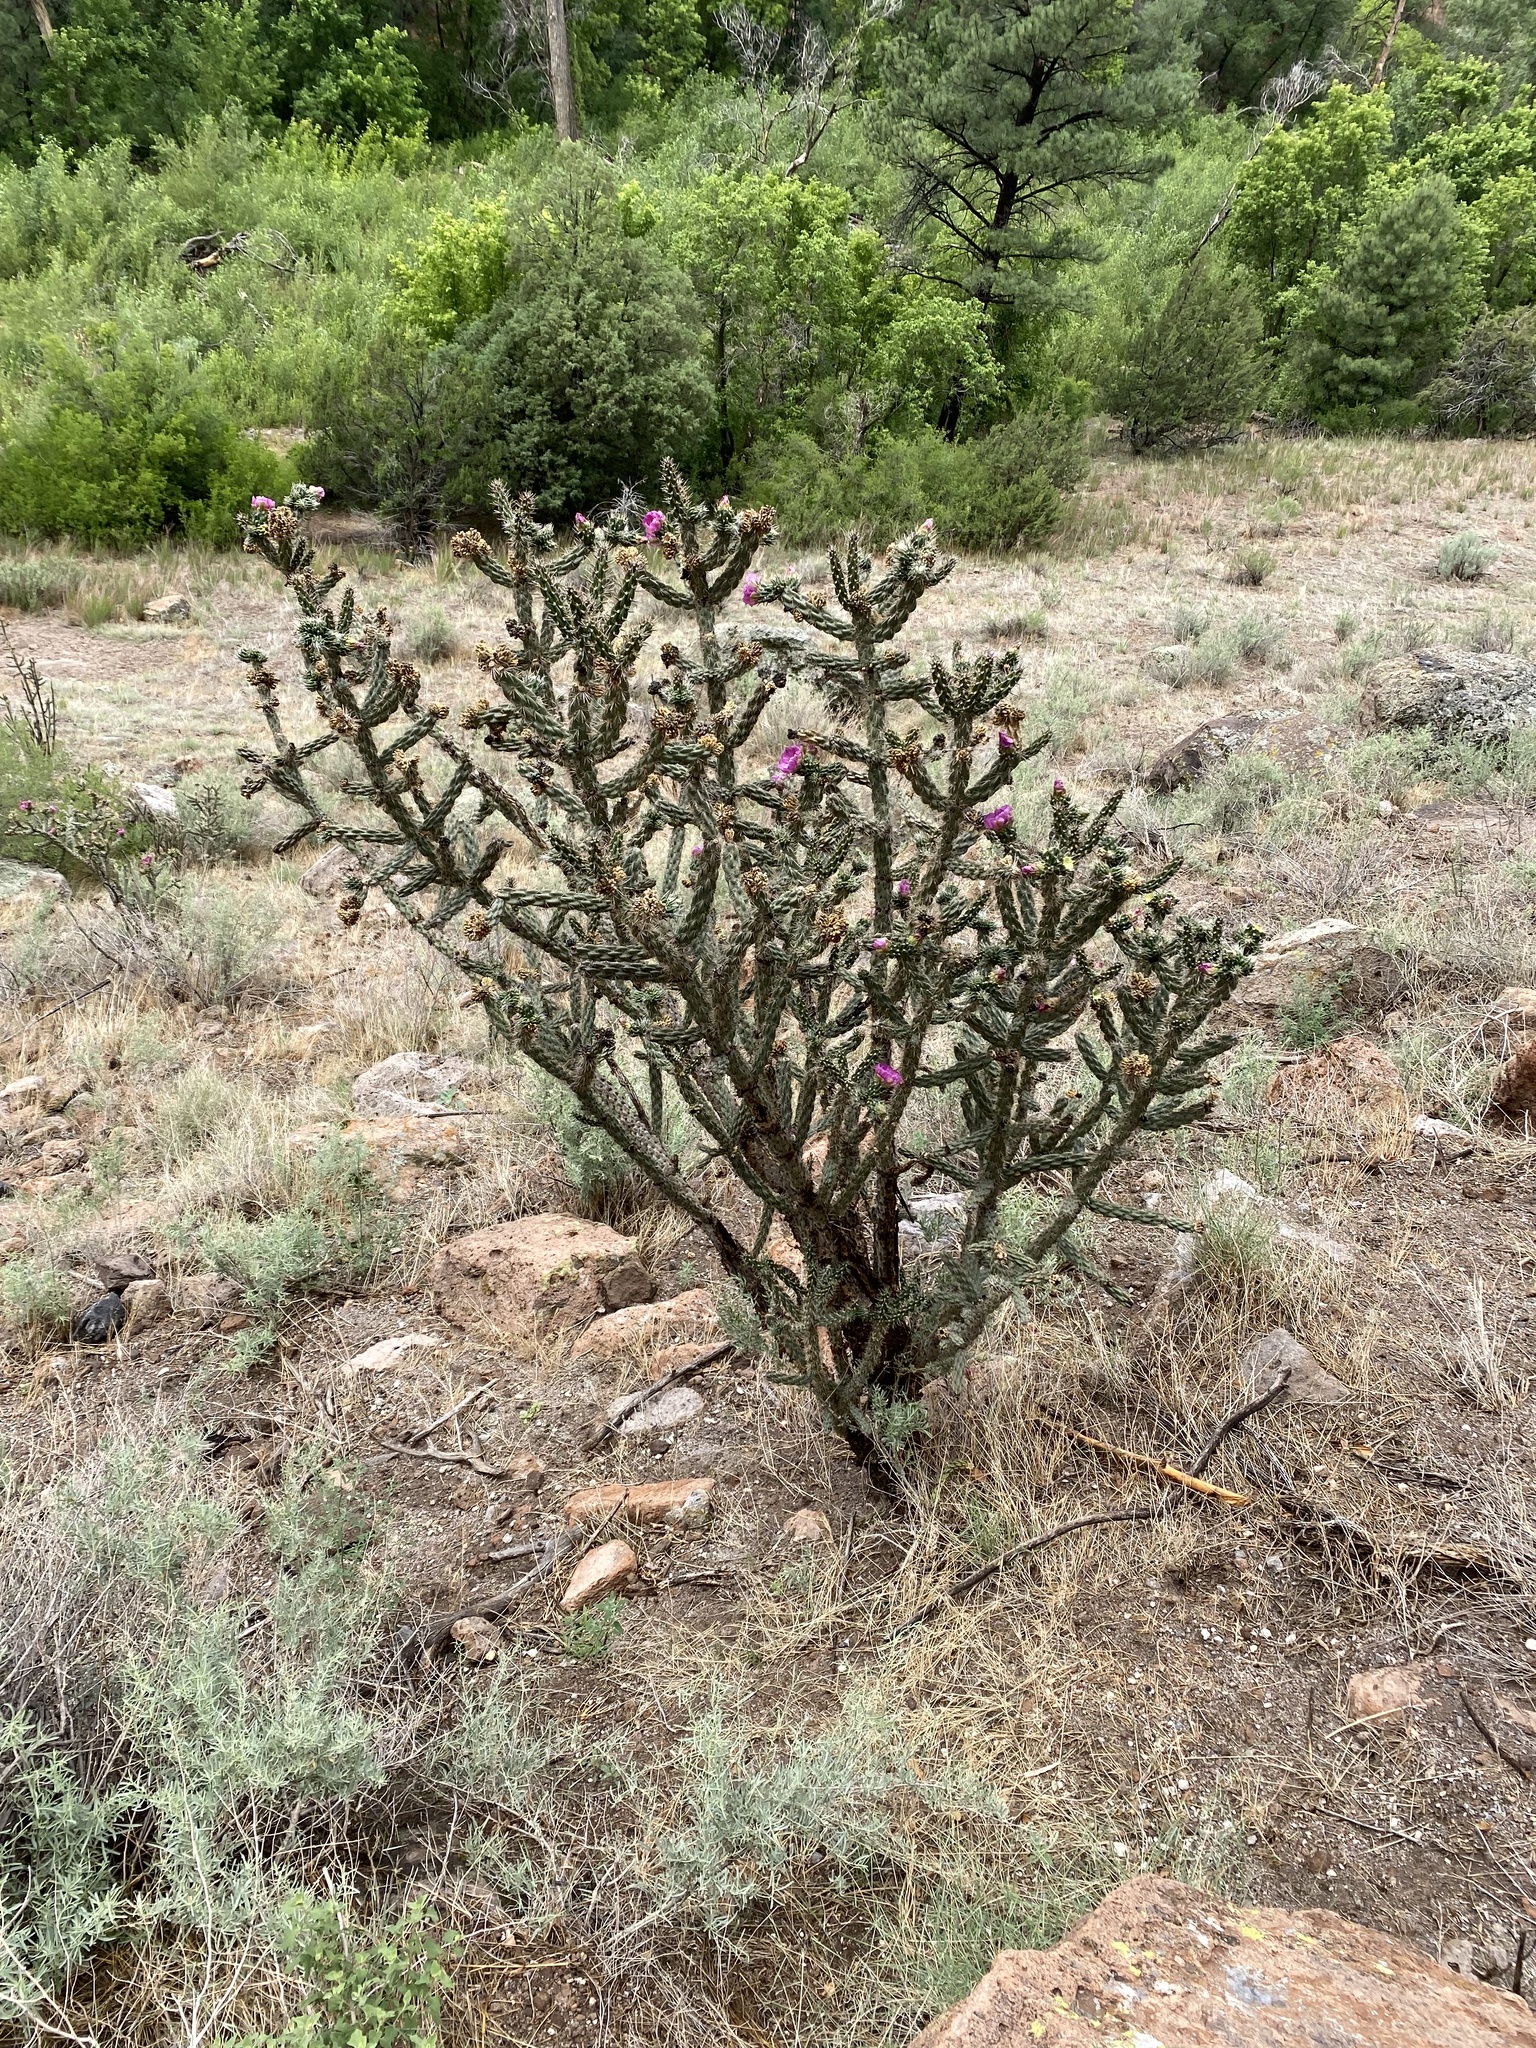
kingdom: Plantae
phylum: Tracheophyta
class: Magnoliopsida
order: Caryophyllales
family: Cactaceae
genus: Cylindropuntia
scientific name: Cylindropuntia imbricata
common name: Candelabrum cactus
